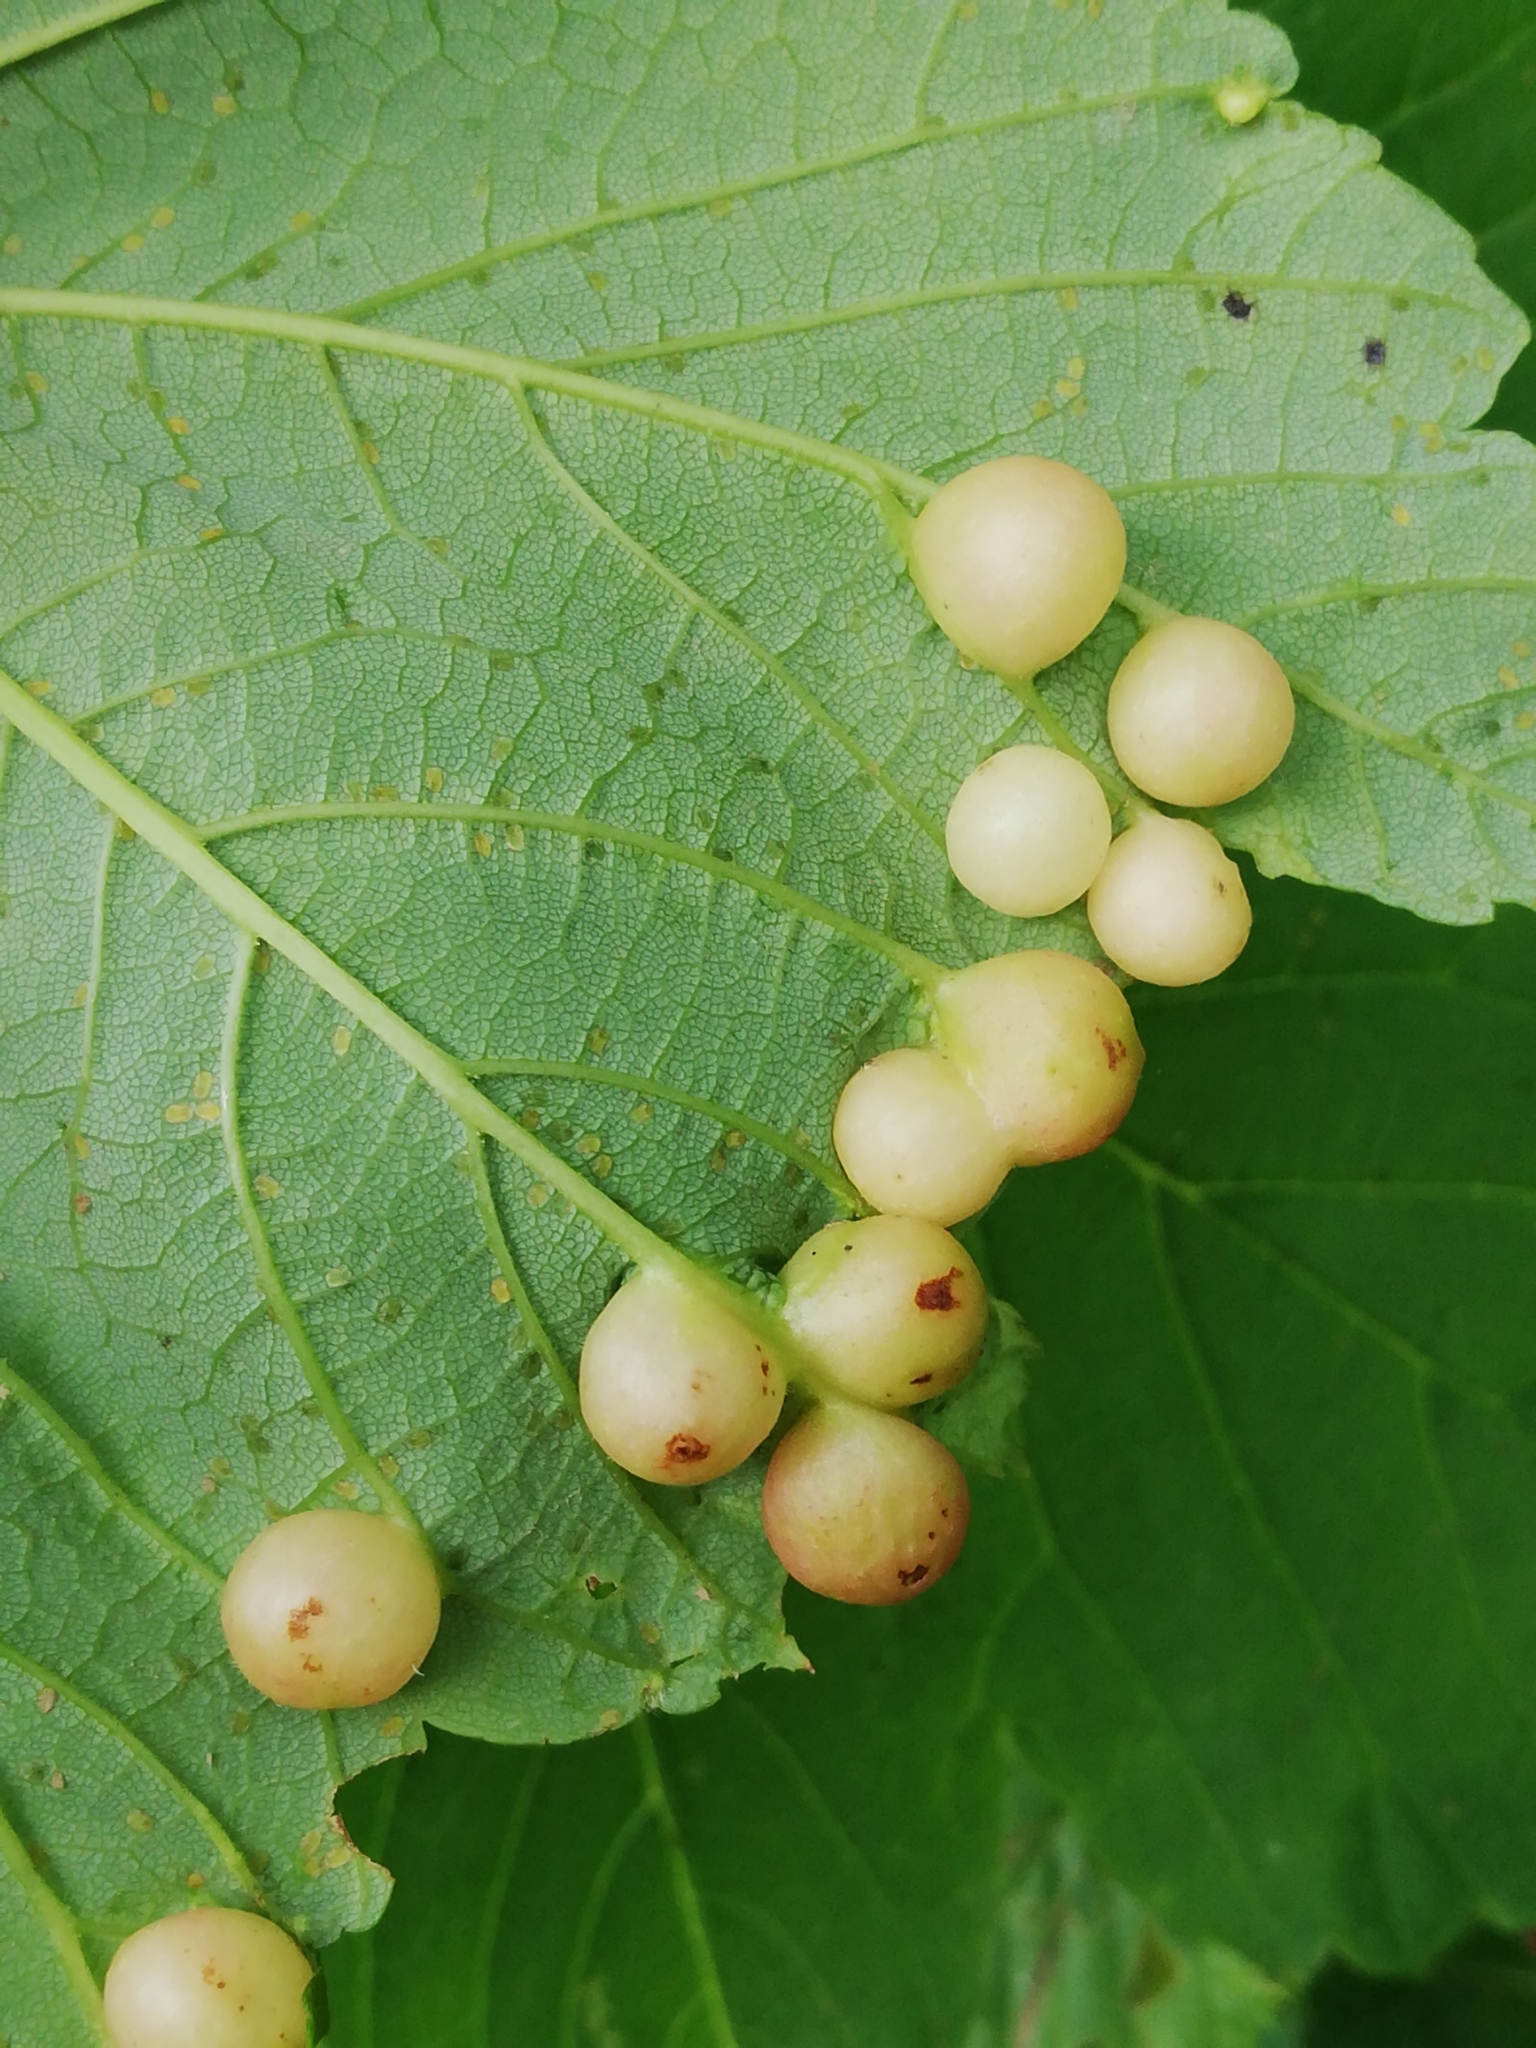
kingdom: Animalia
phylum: Arthropoda
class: Insecta
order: Hymenoptera
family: Cynipidae
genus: Pediaspis
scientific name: Pediaspis aceris
